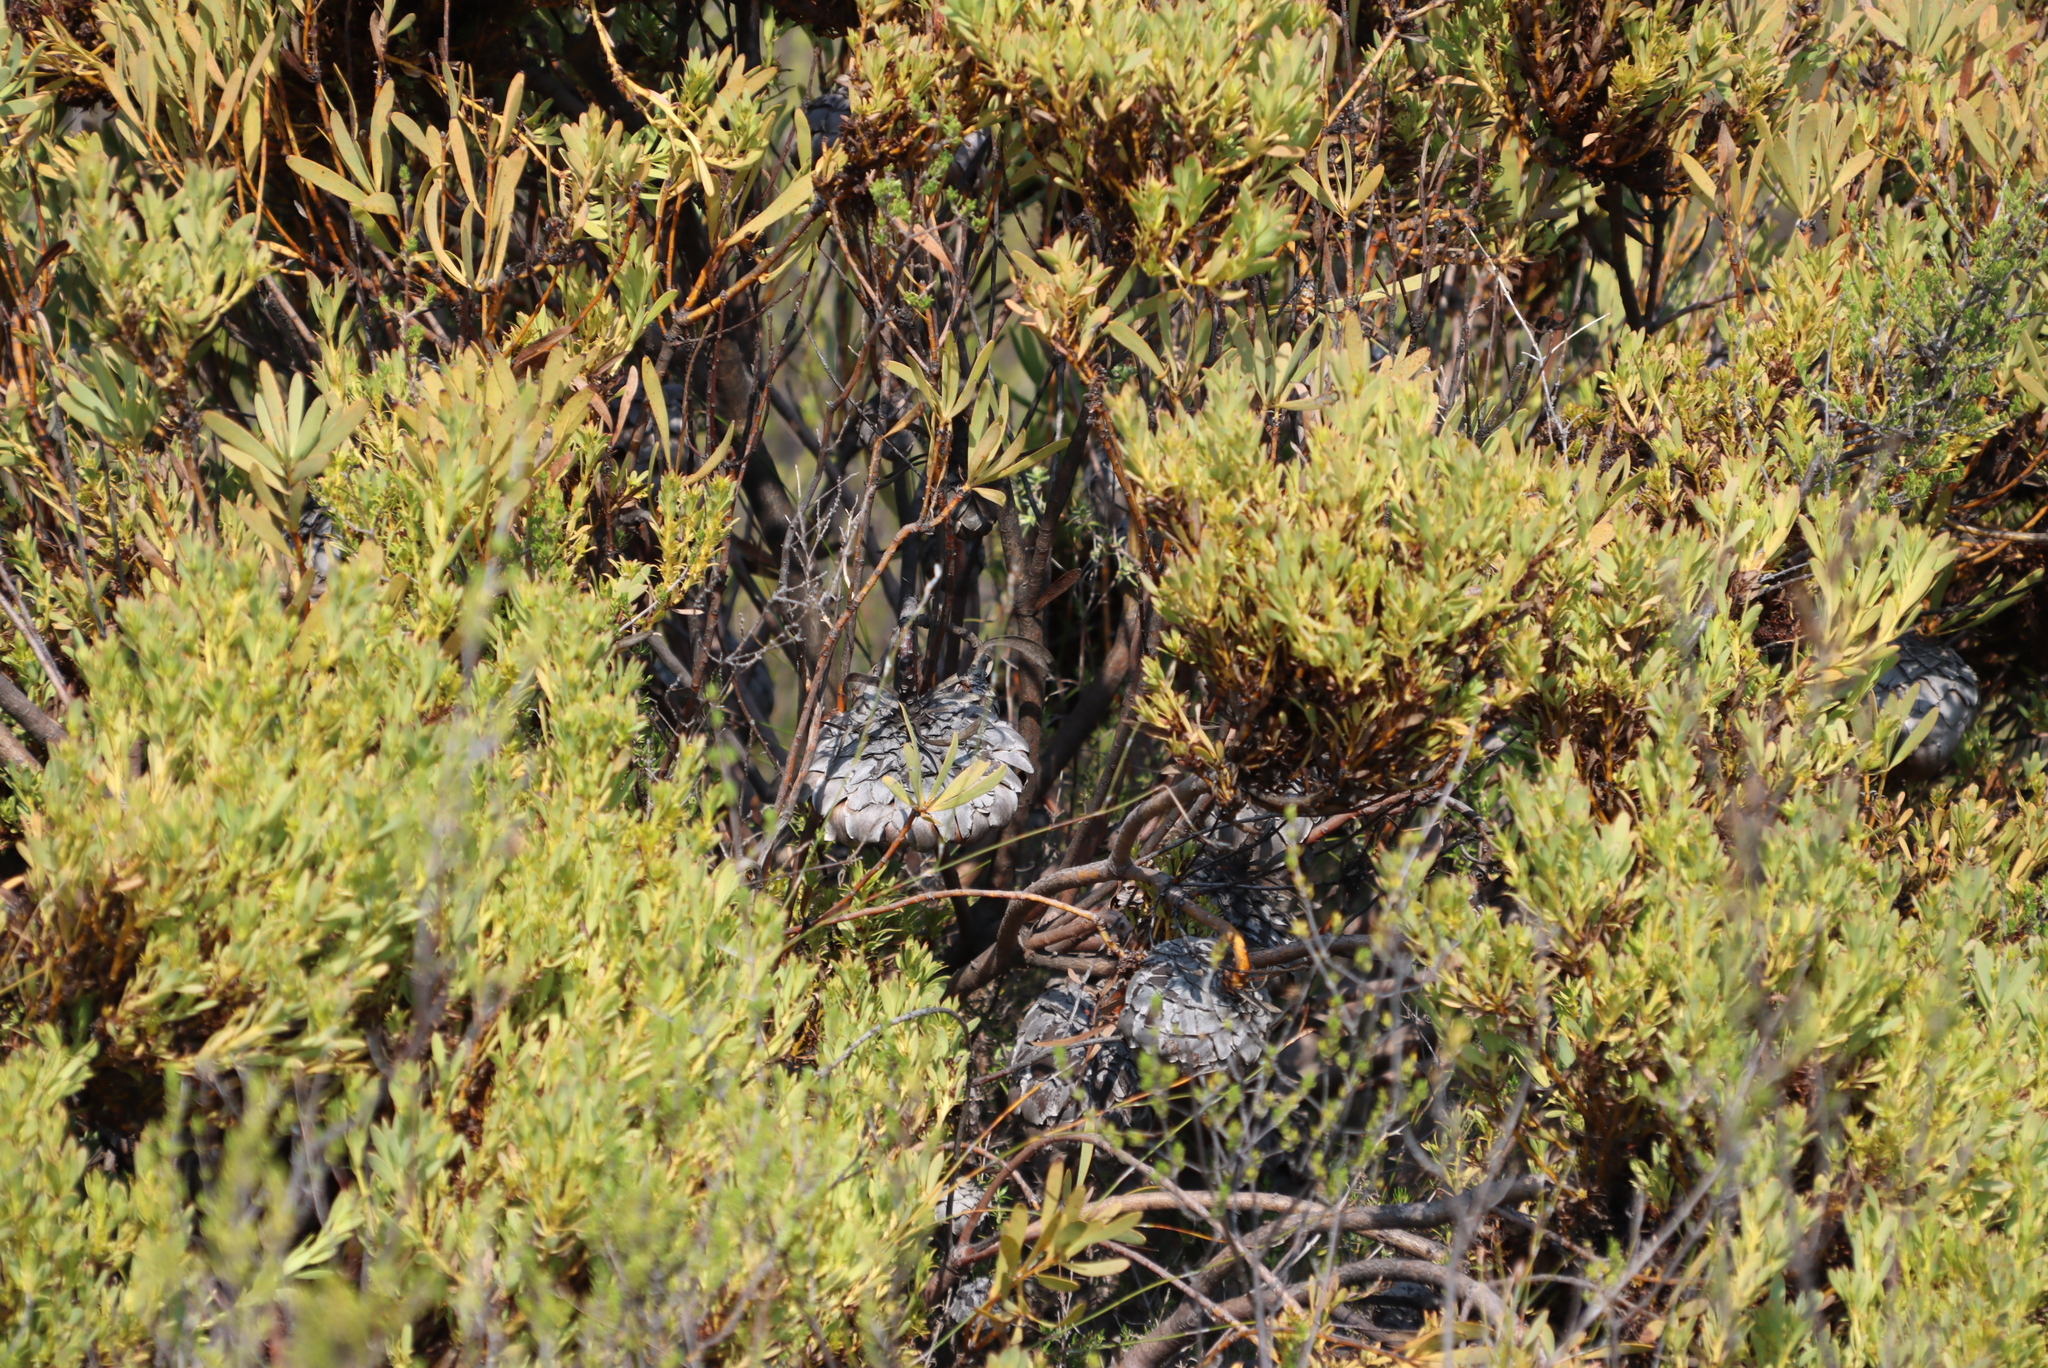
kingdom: Bacteria
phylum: Firmicutes
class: Bacilli
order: Acholeplasmatales
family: Acholeplasmataceae
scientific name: Acholeplasmataceae
